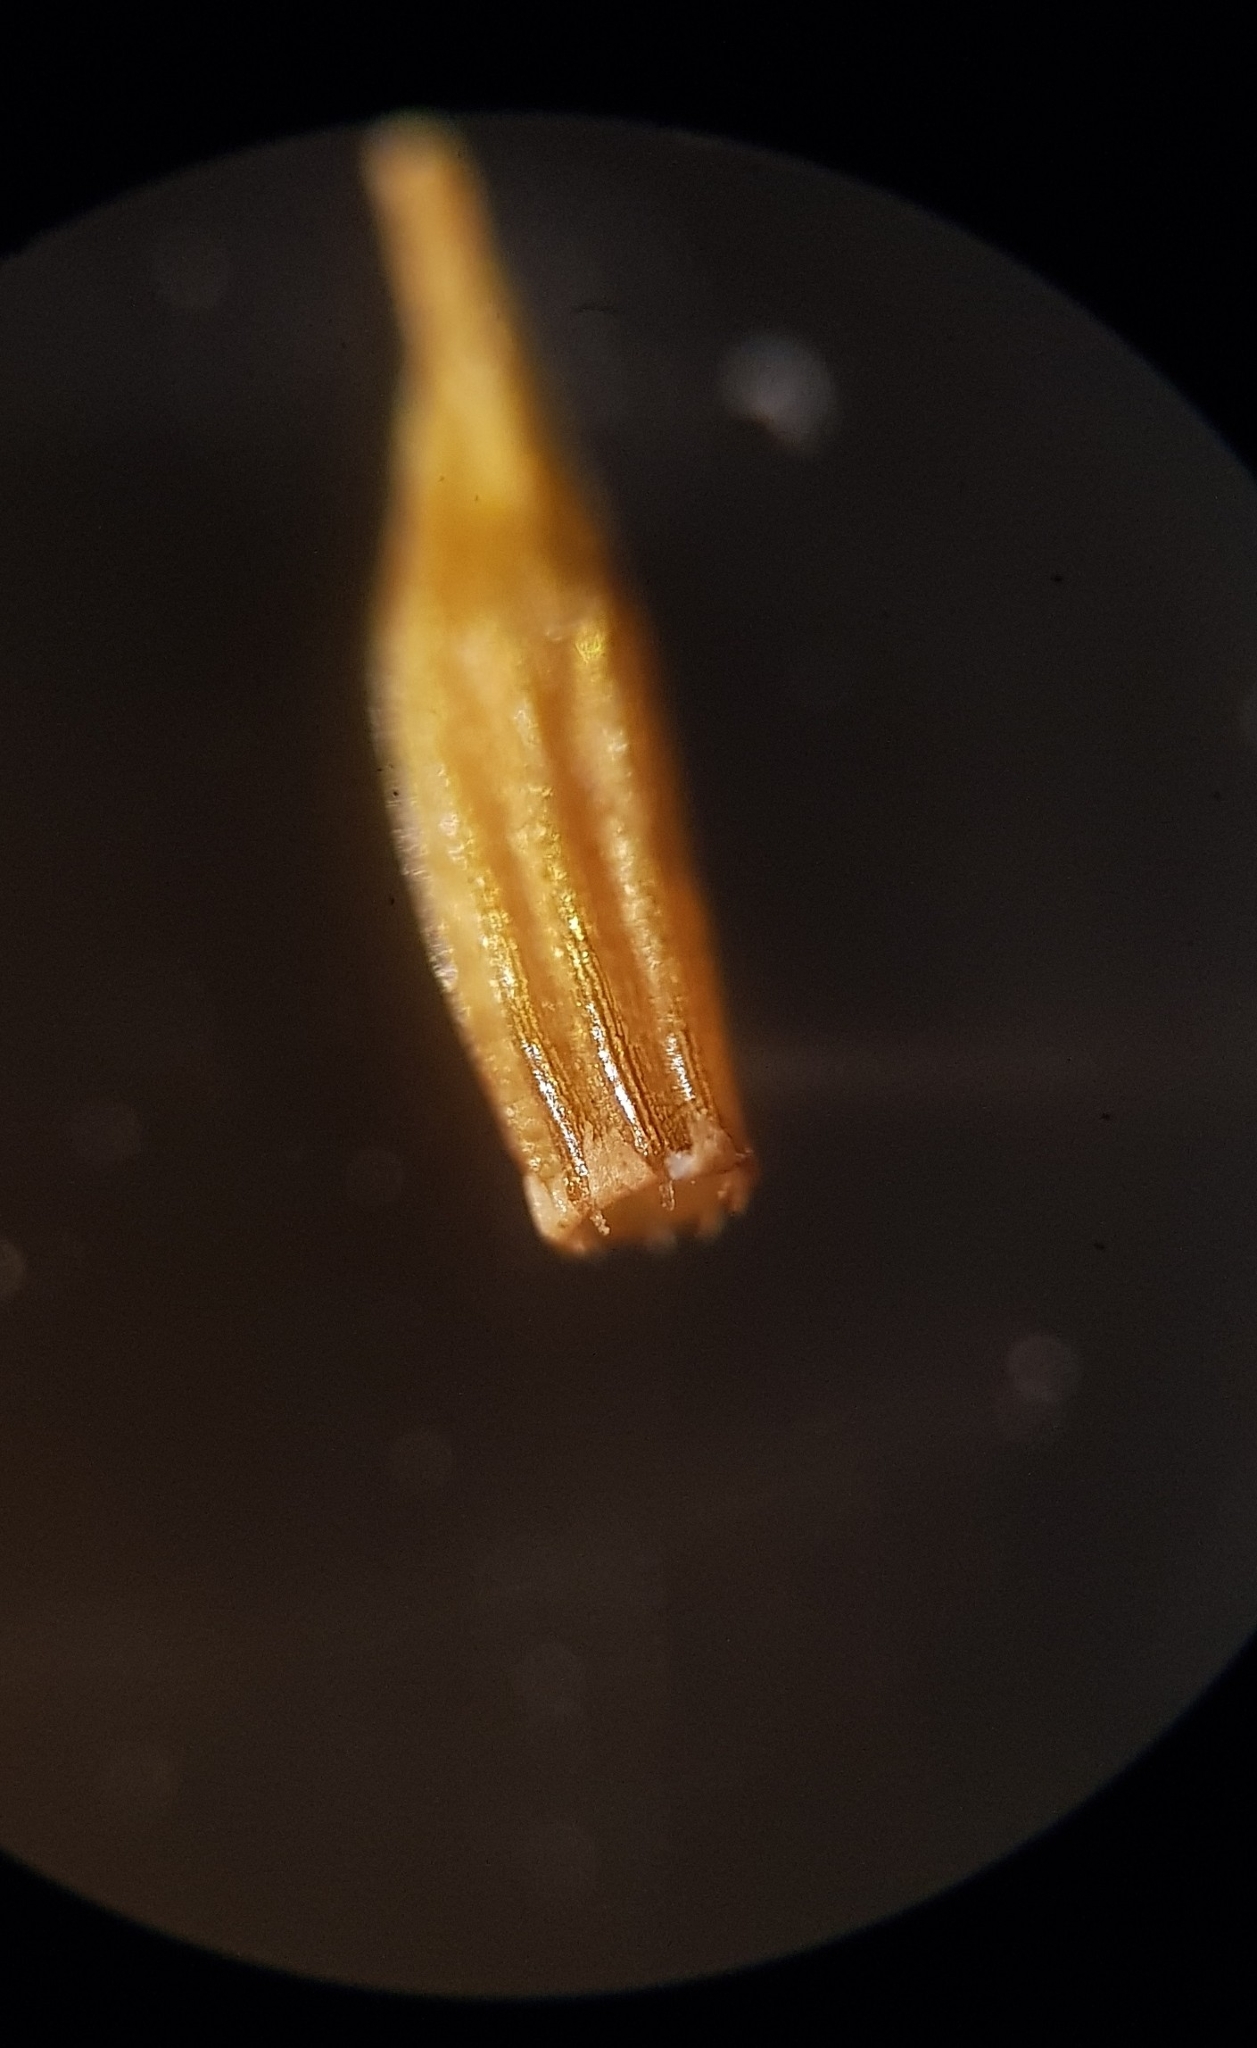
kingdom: Plantae
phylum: Bryophyta
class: Bryopsida
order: Orthotrichales
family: Orthotrichaceae
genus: Lewinskya
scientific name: Lewinskya affinis
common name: Wood bristle-moss
